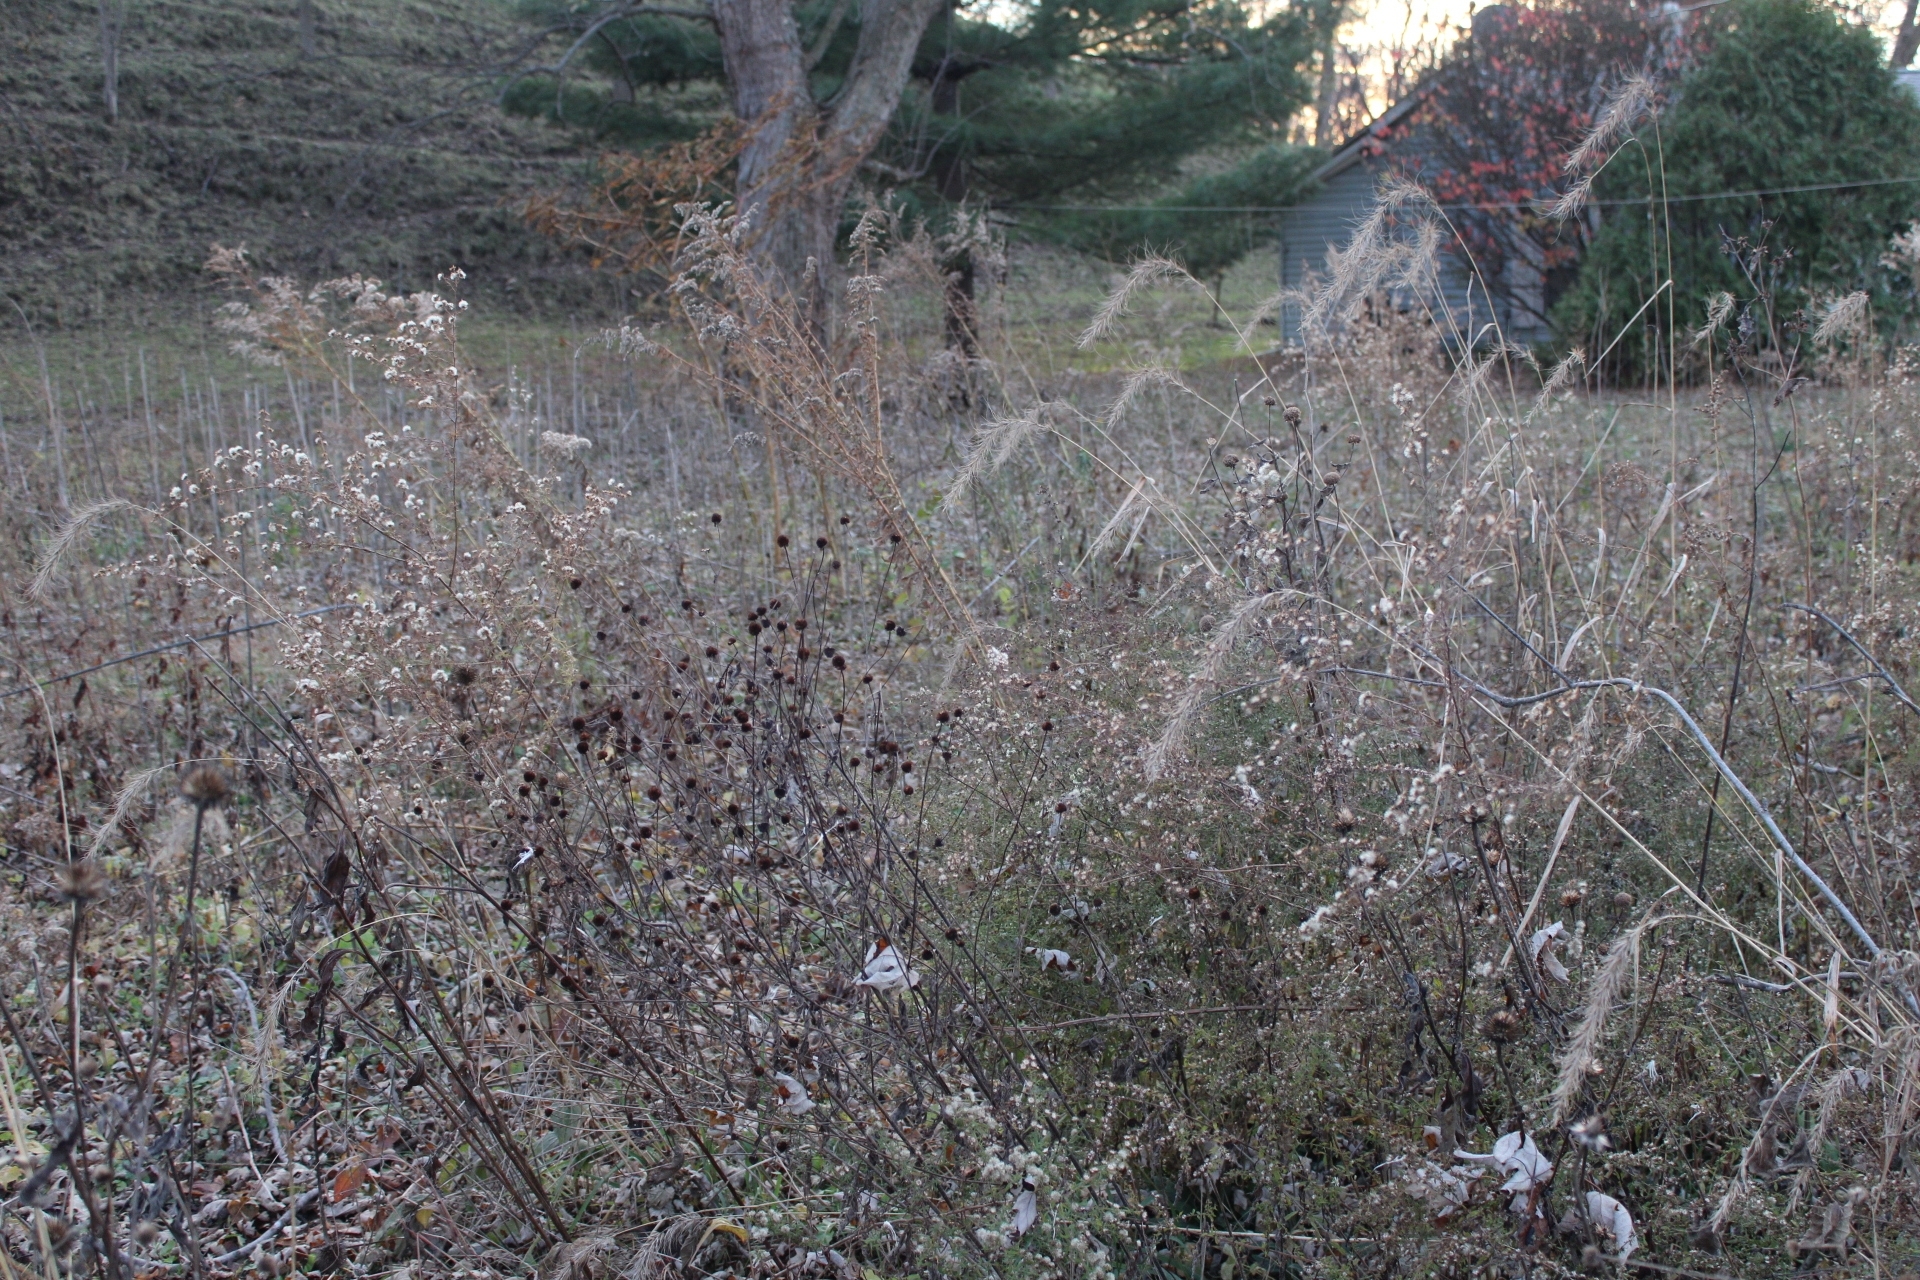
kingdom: Plantae
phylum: Tracheophyta
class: Liliopsida
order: Poales
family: Poaceae
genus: Elymus
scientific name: Elymus canadensis
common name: Canada wild rye
